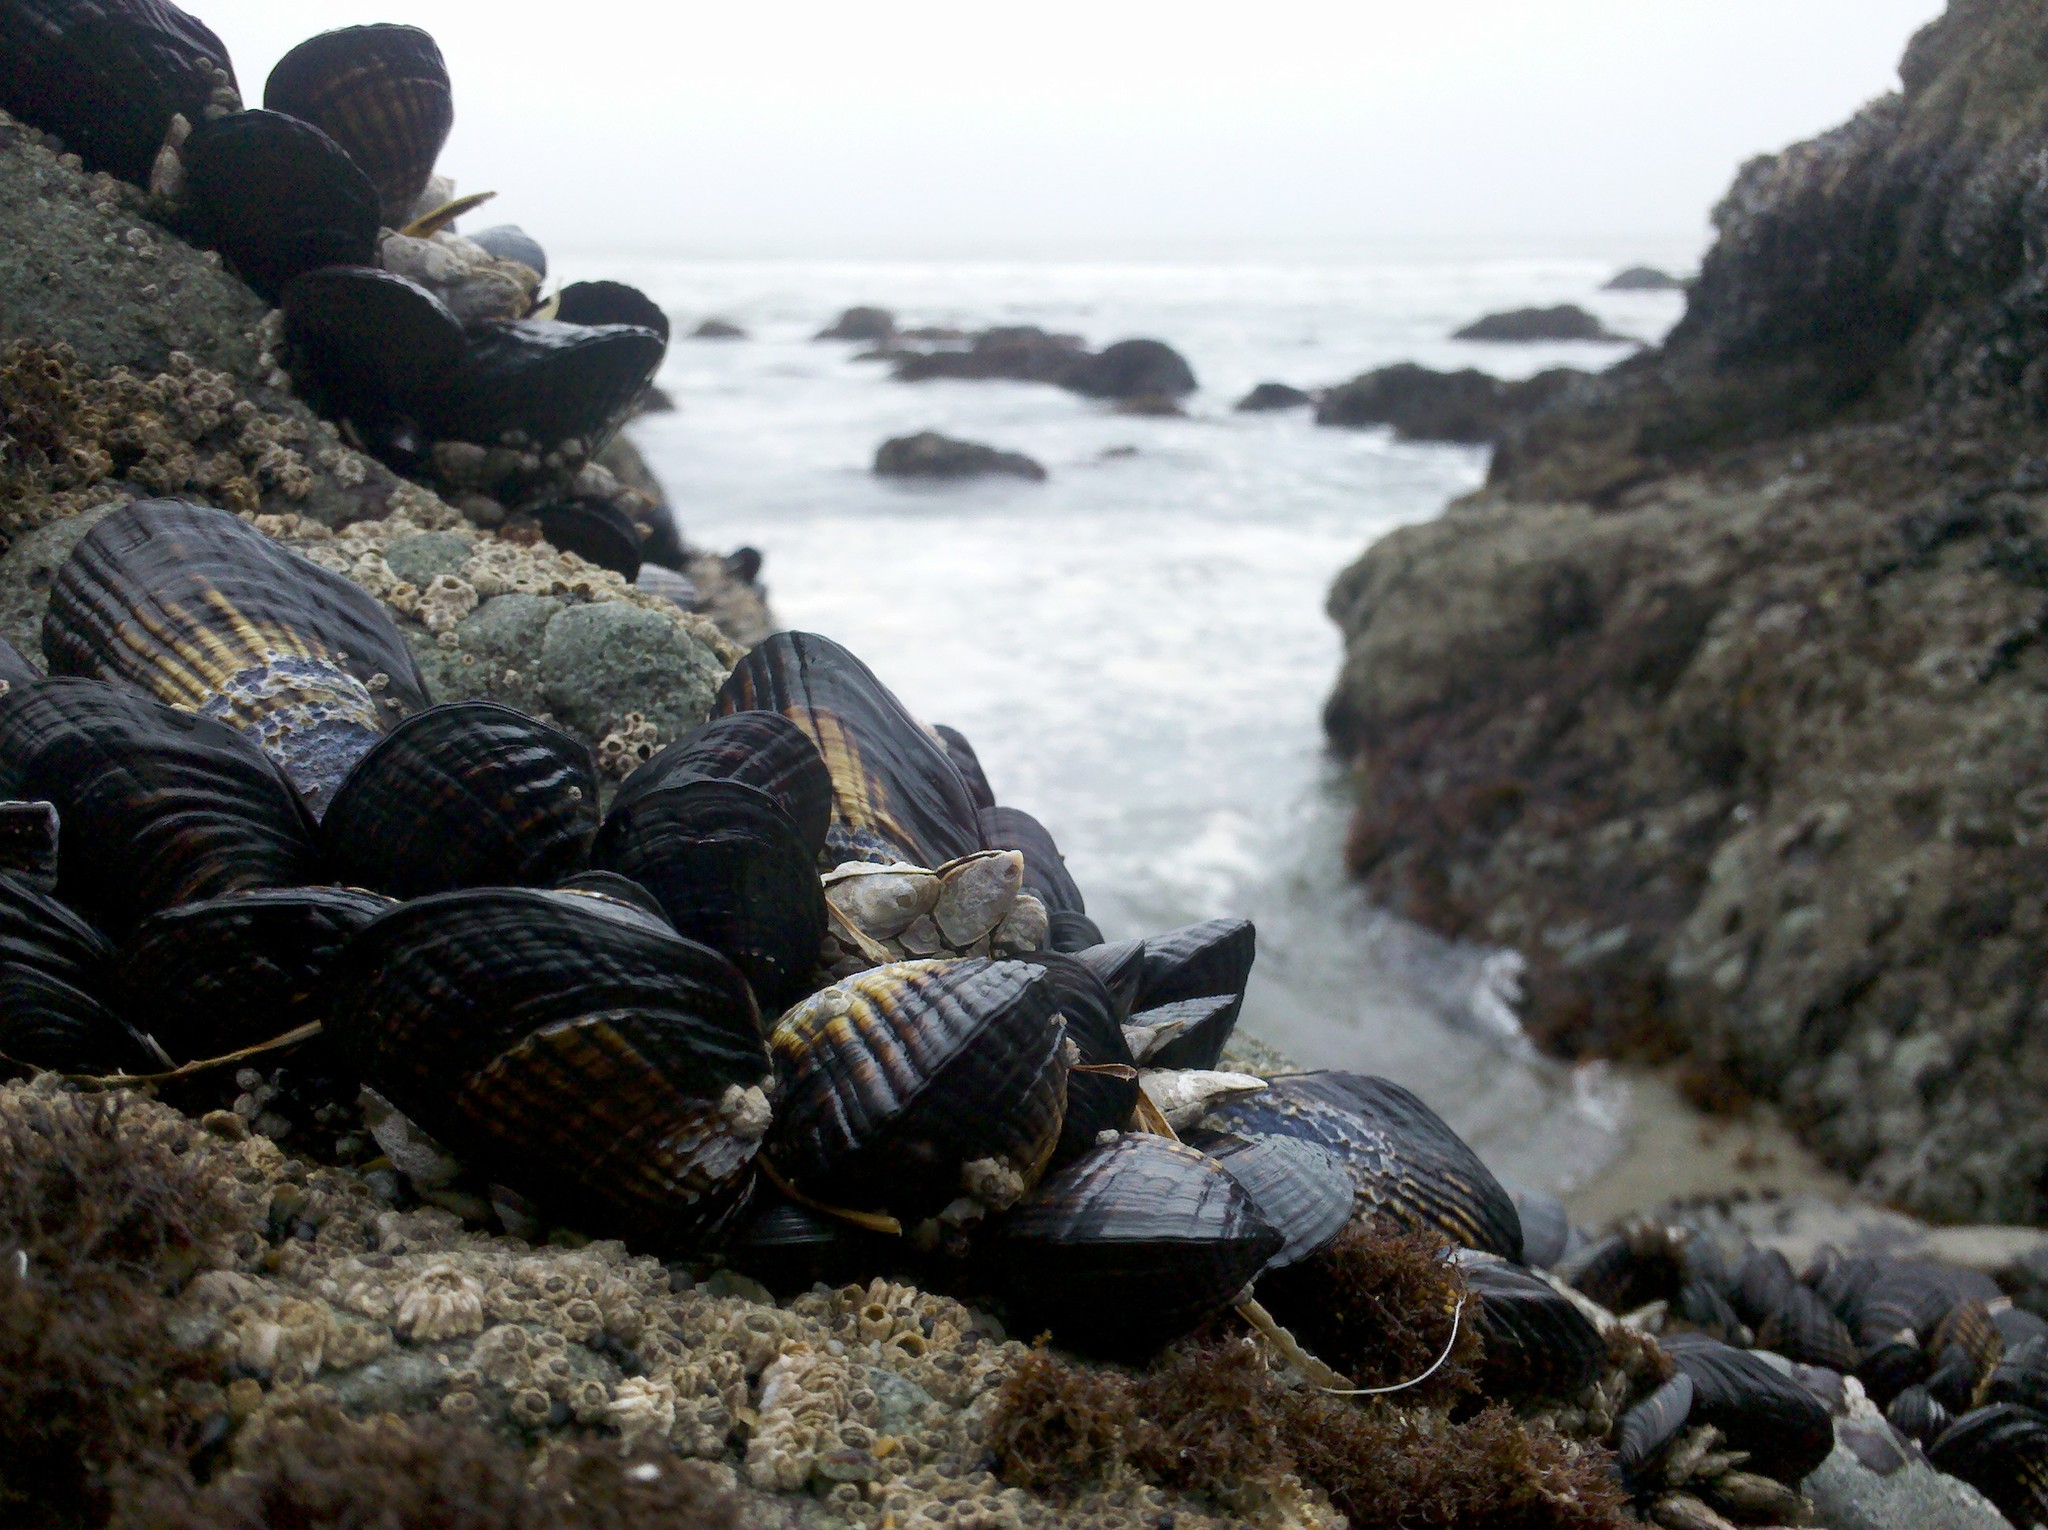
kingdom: Animalia
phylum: Mollusca
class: Bivalvia
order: Mytilida
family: Mytilidae
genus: Mytilus
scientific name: Mytilus californianus
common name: California mussel
